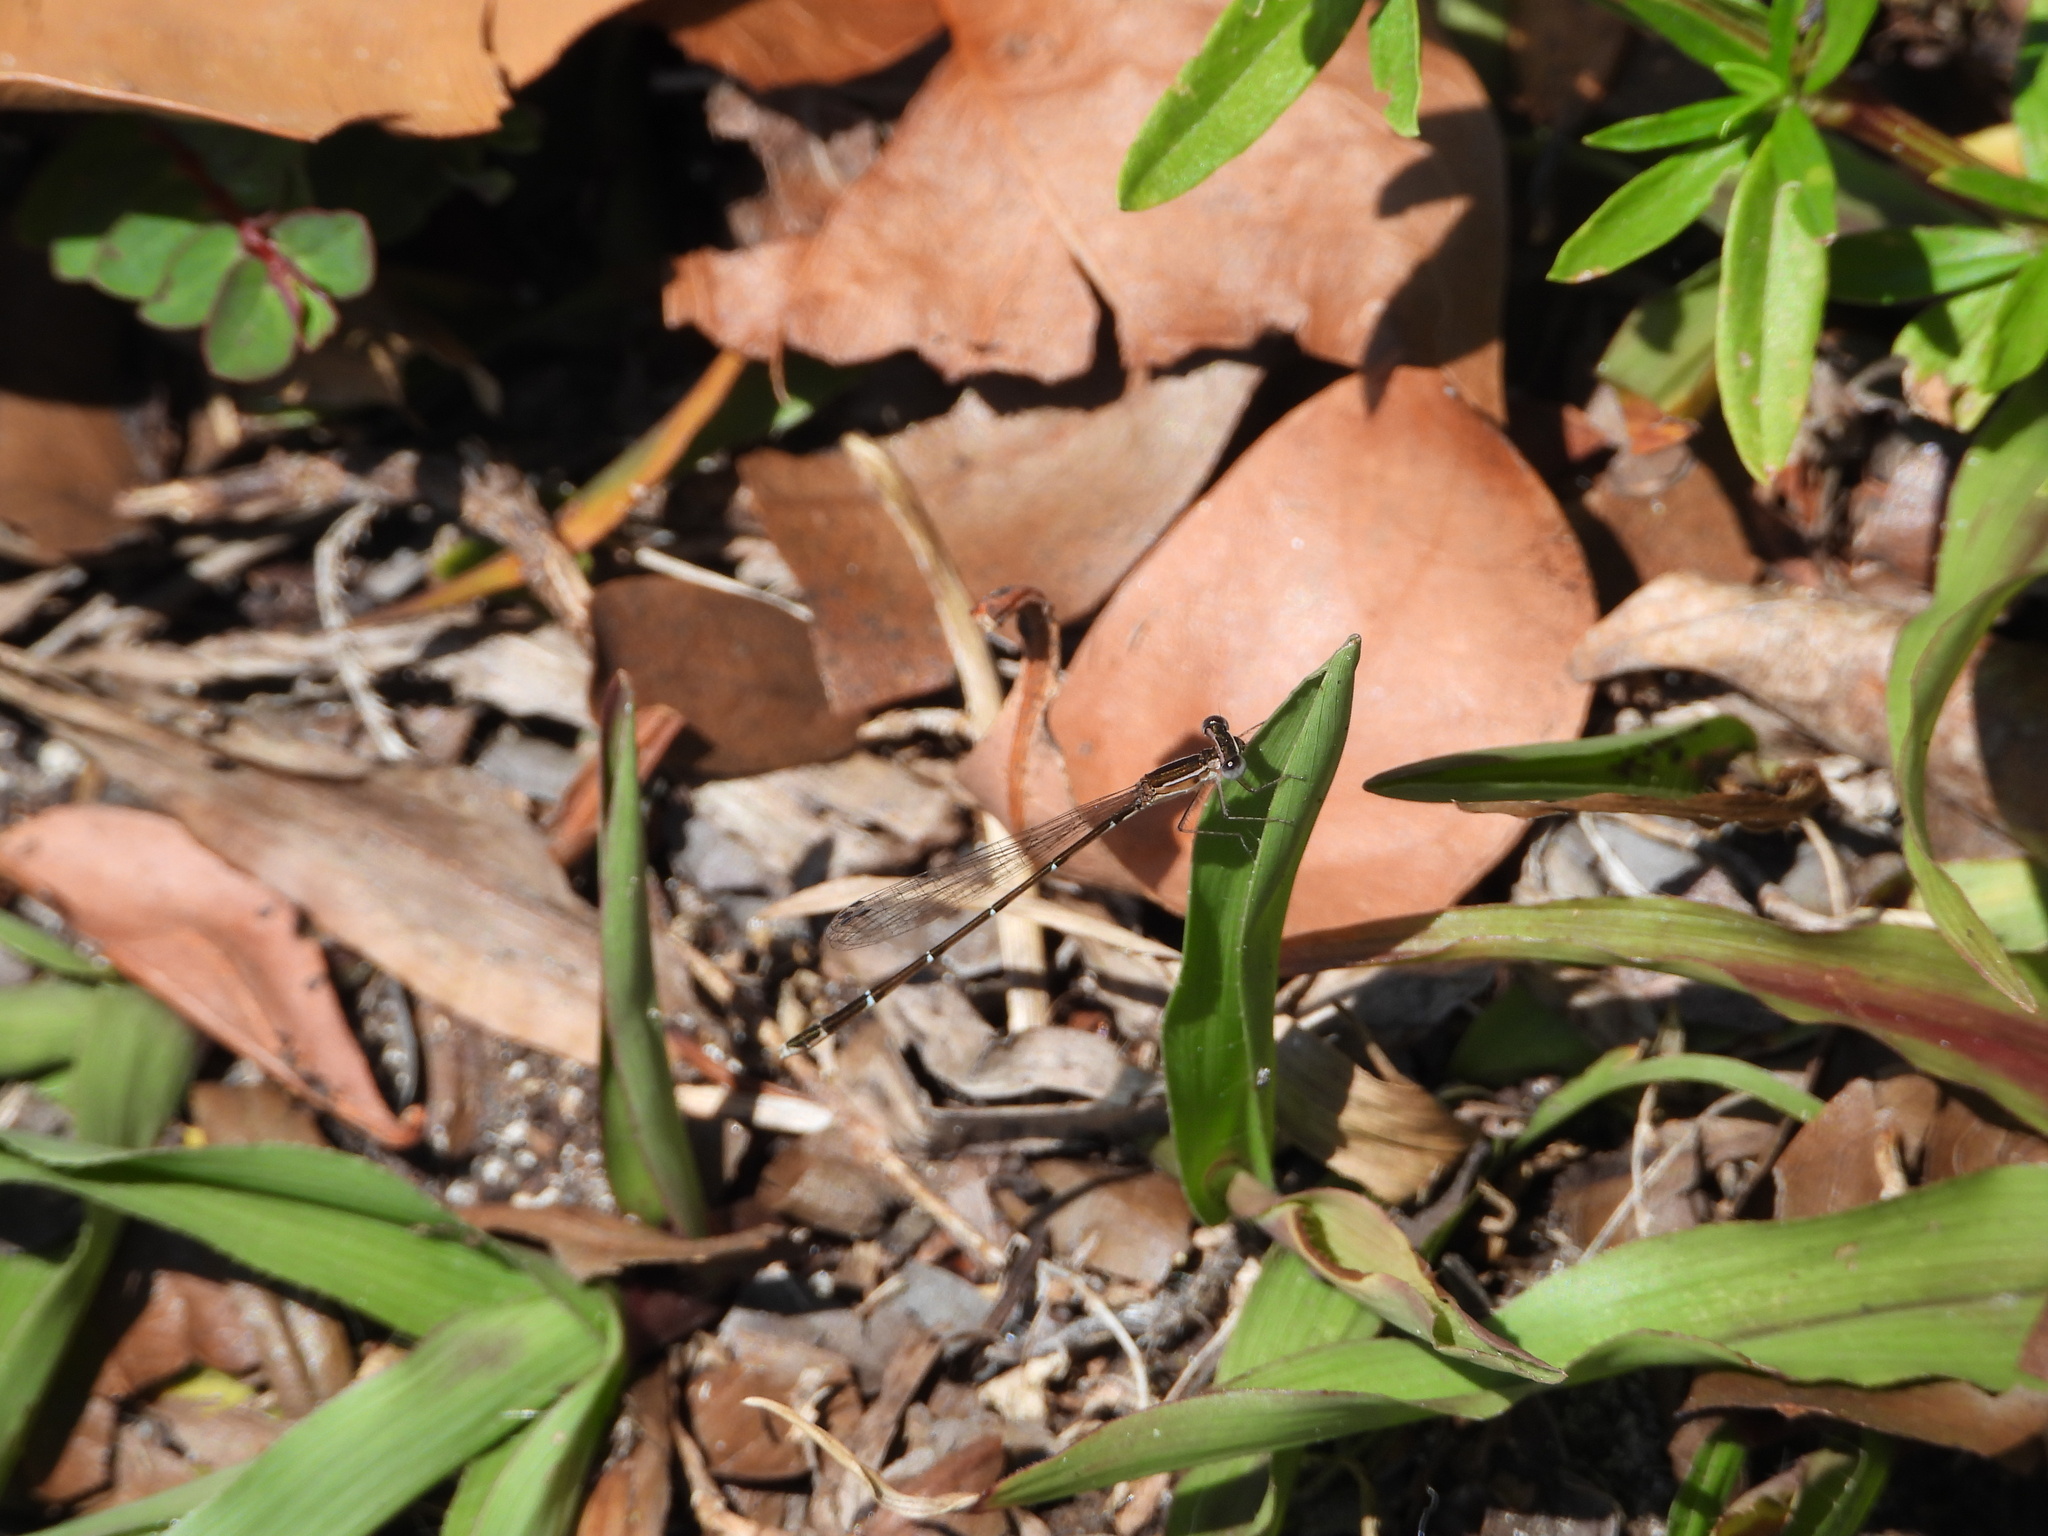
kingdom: Animalia
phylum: Arthropoda
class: Insecta
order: Odonata
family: Coenagrionidae
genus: Nehalennia
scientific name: Nehalennia pallidula
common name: Everglades sprite
